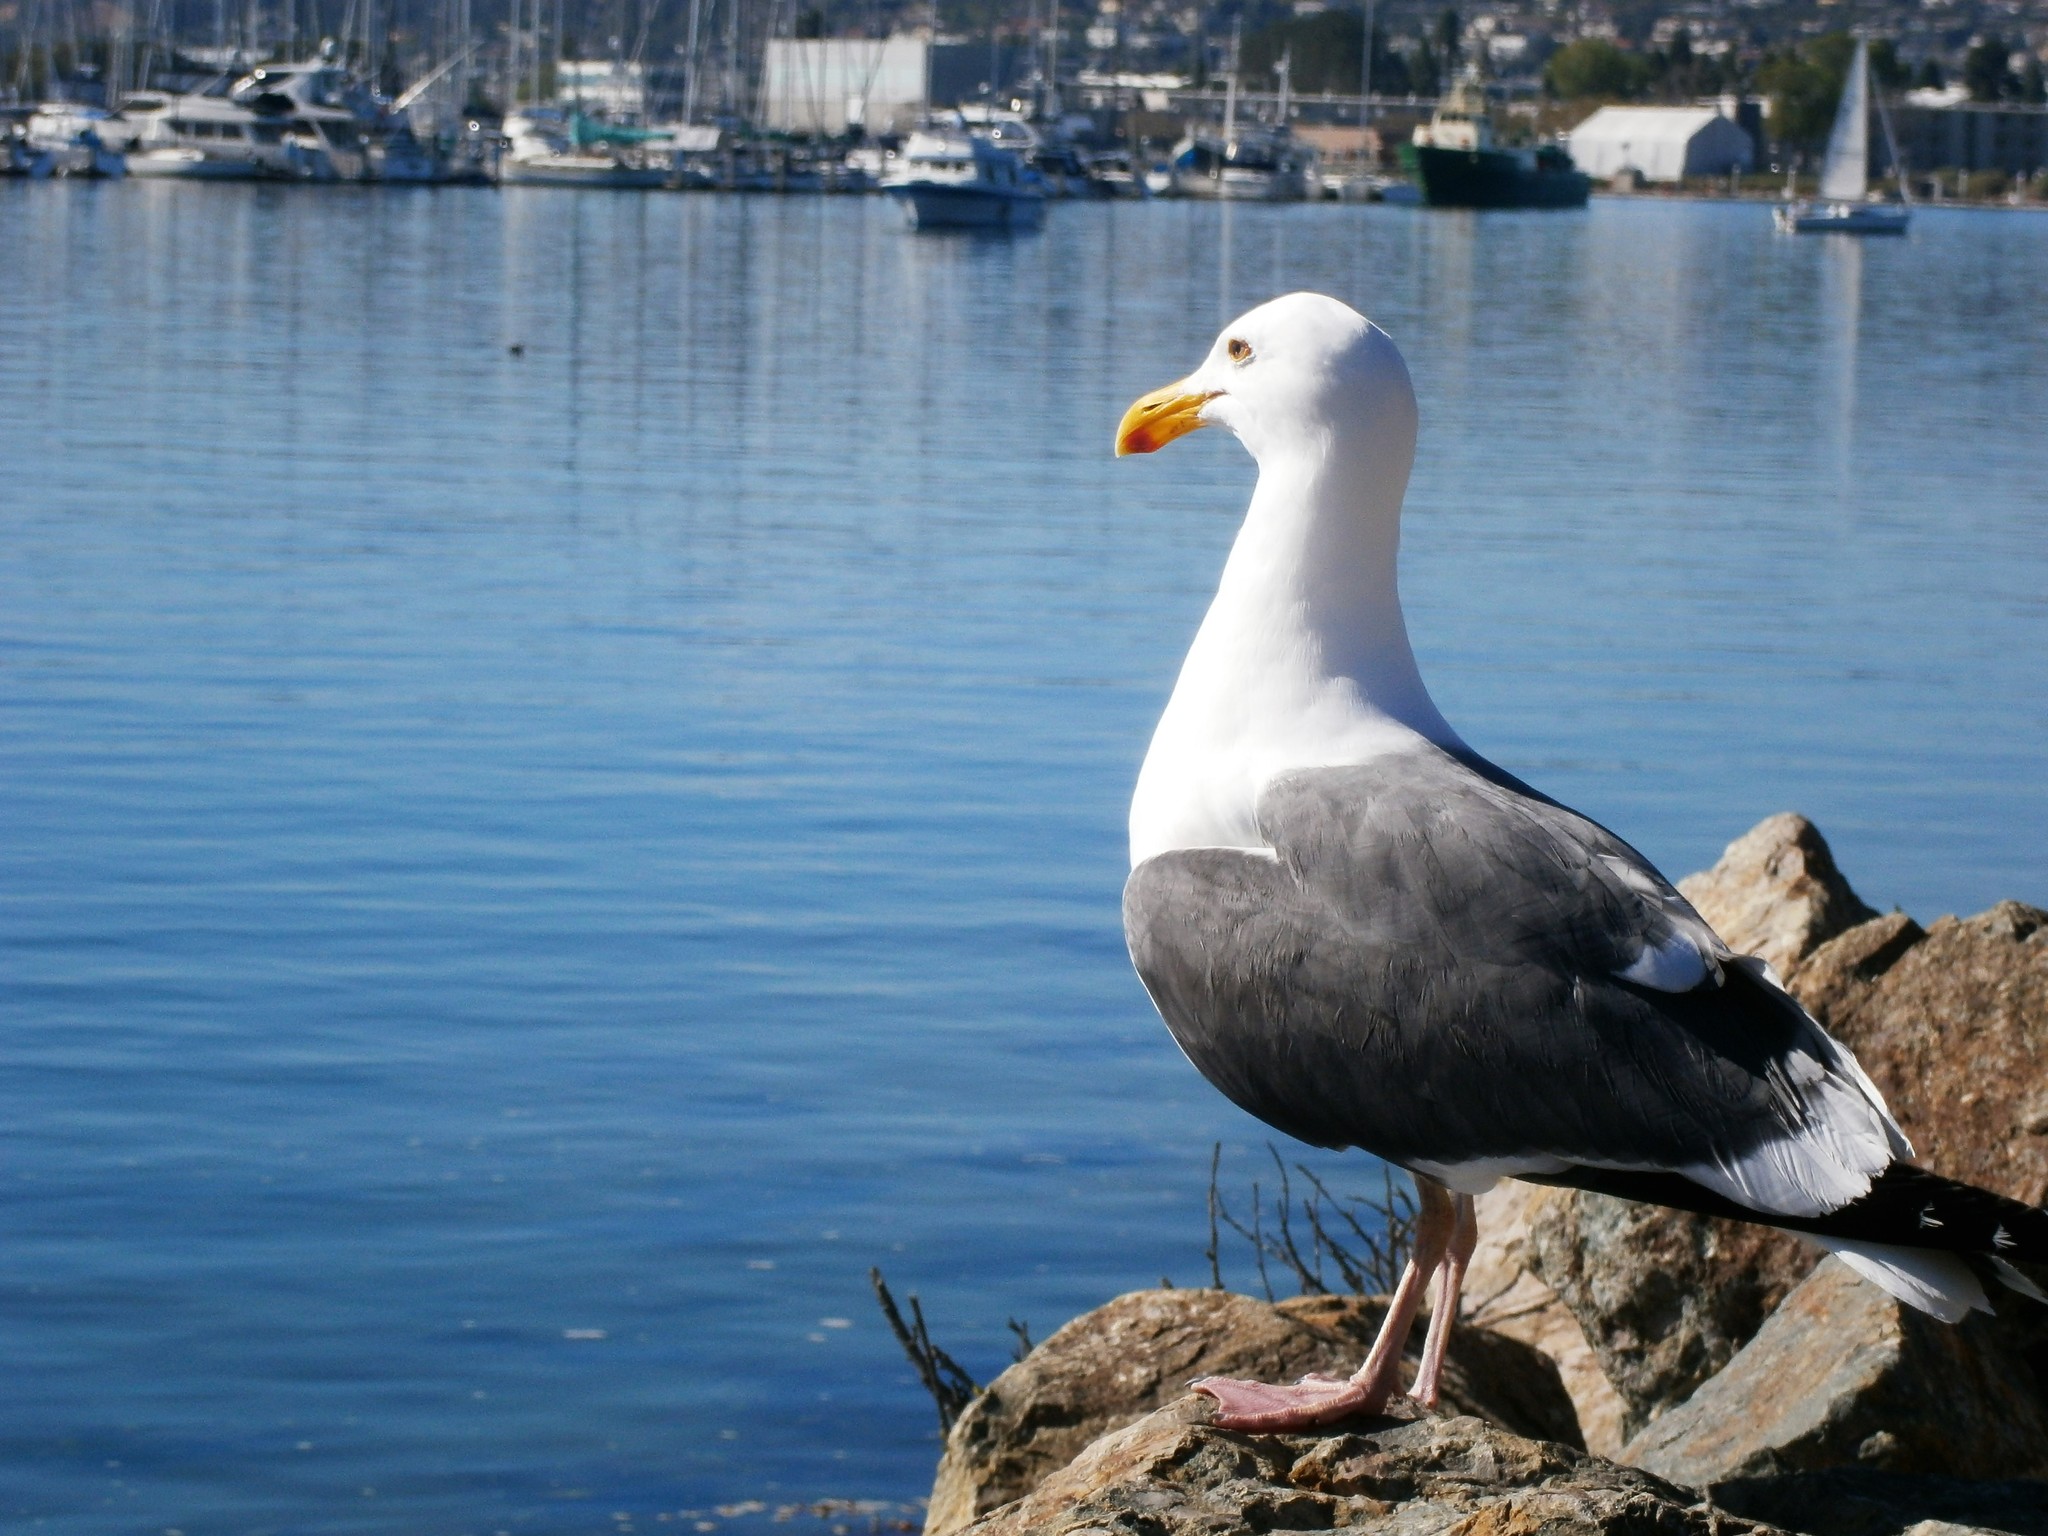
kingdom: Animalia
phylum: Chordata
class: Aves
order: Charadriiformes
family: Laridae
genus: Larus
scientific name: Larus occidentalis
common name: Western gull
